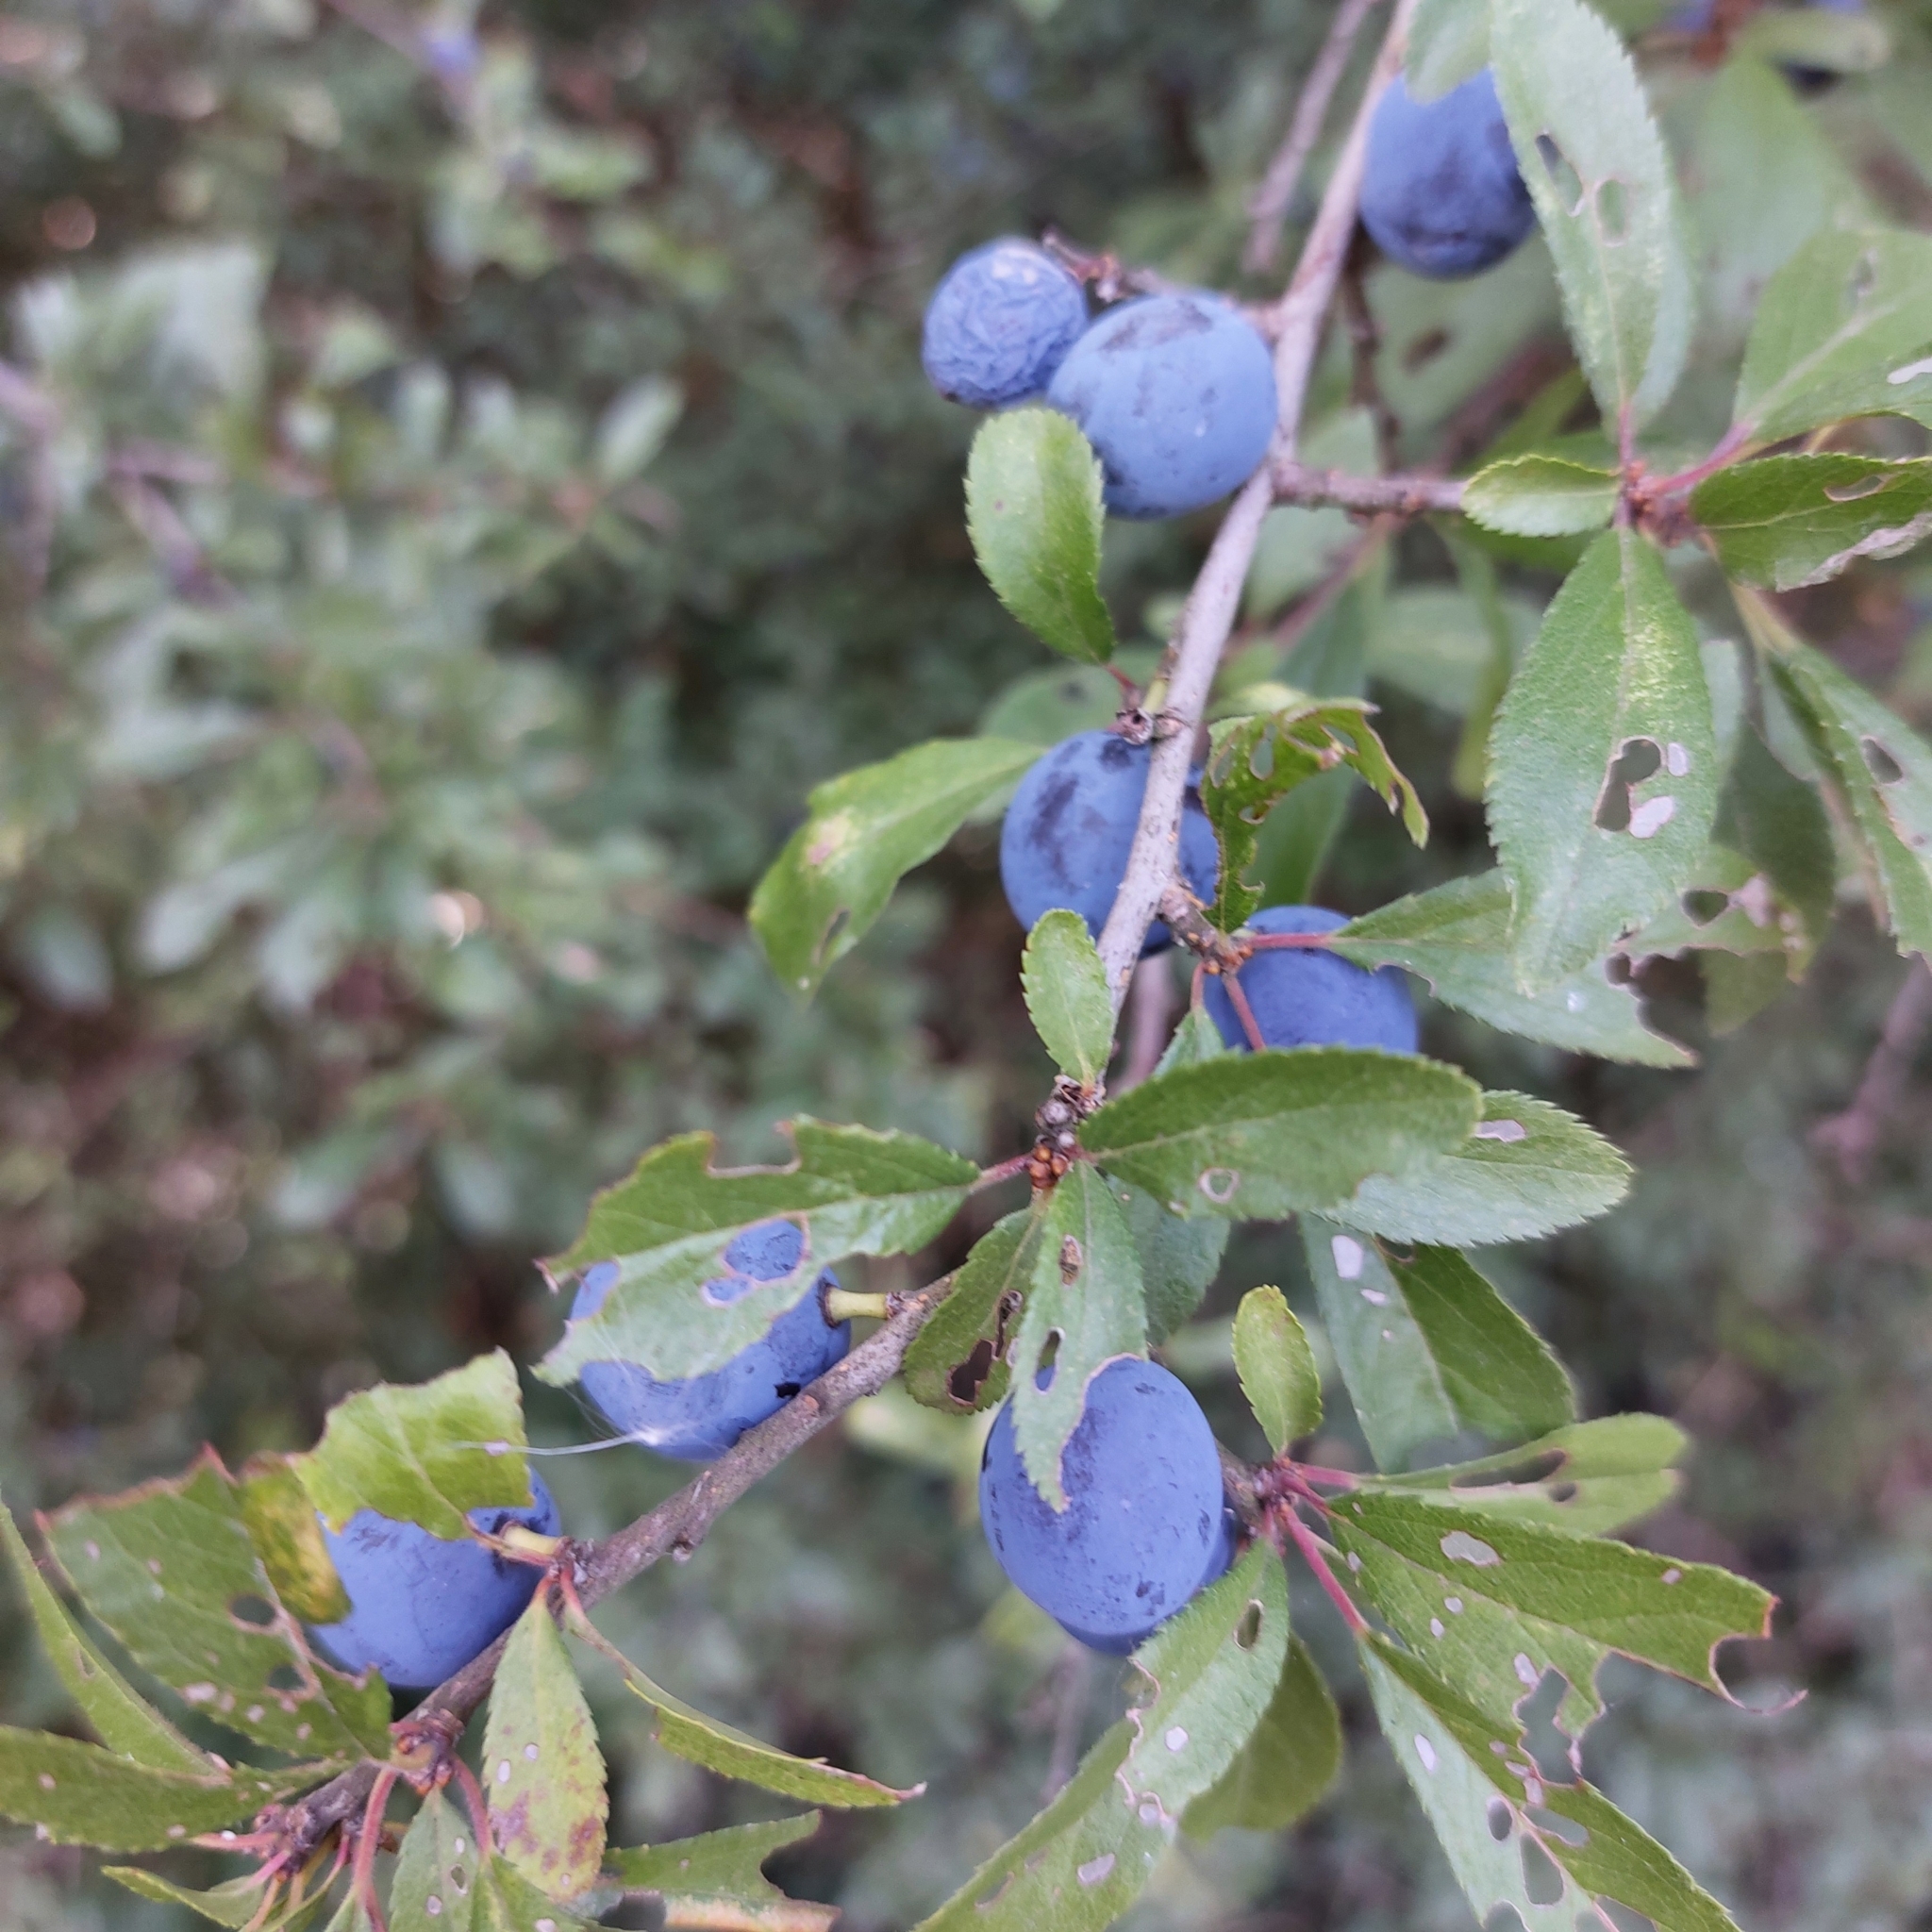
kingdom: Plantae
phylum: Tracheophyta
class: Magnoliopsida
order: Rosales
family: Rosaceae
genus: Prunus
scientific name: Prunus spinosa
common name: Blackthorn
